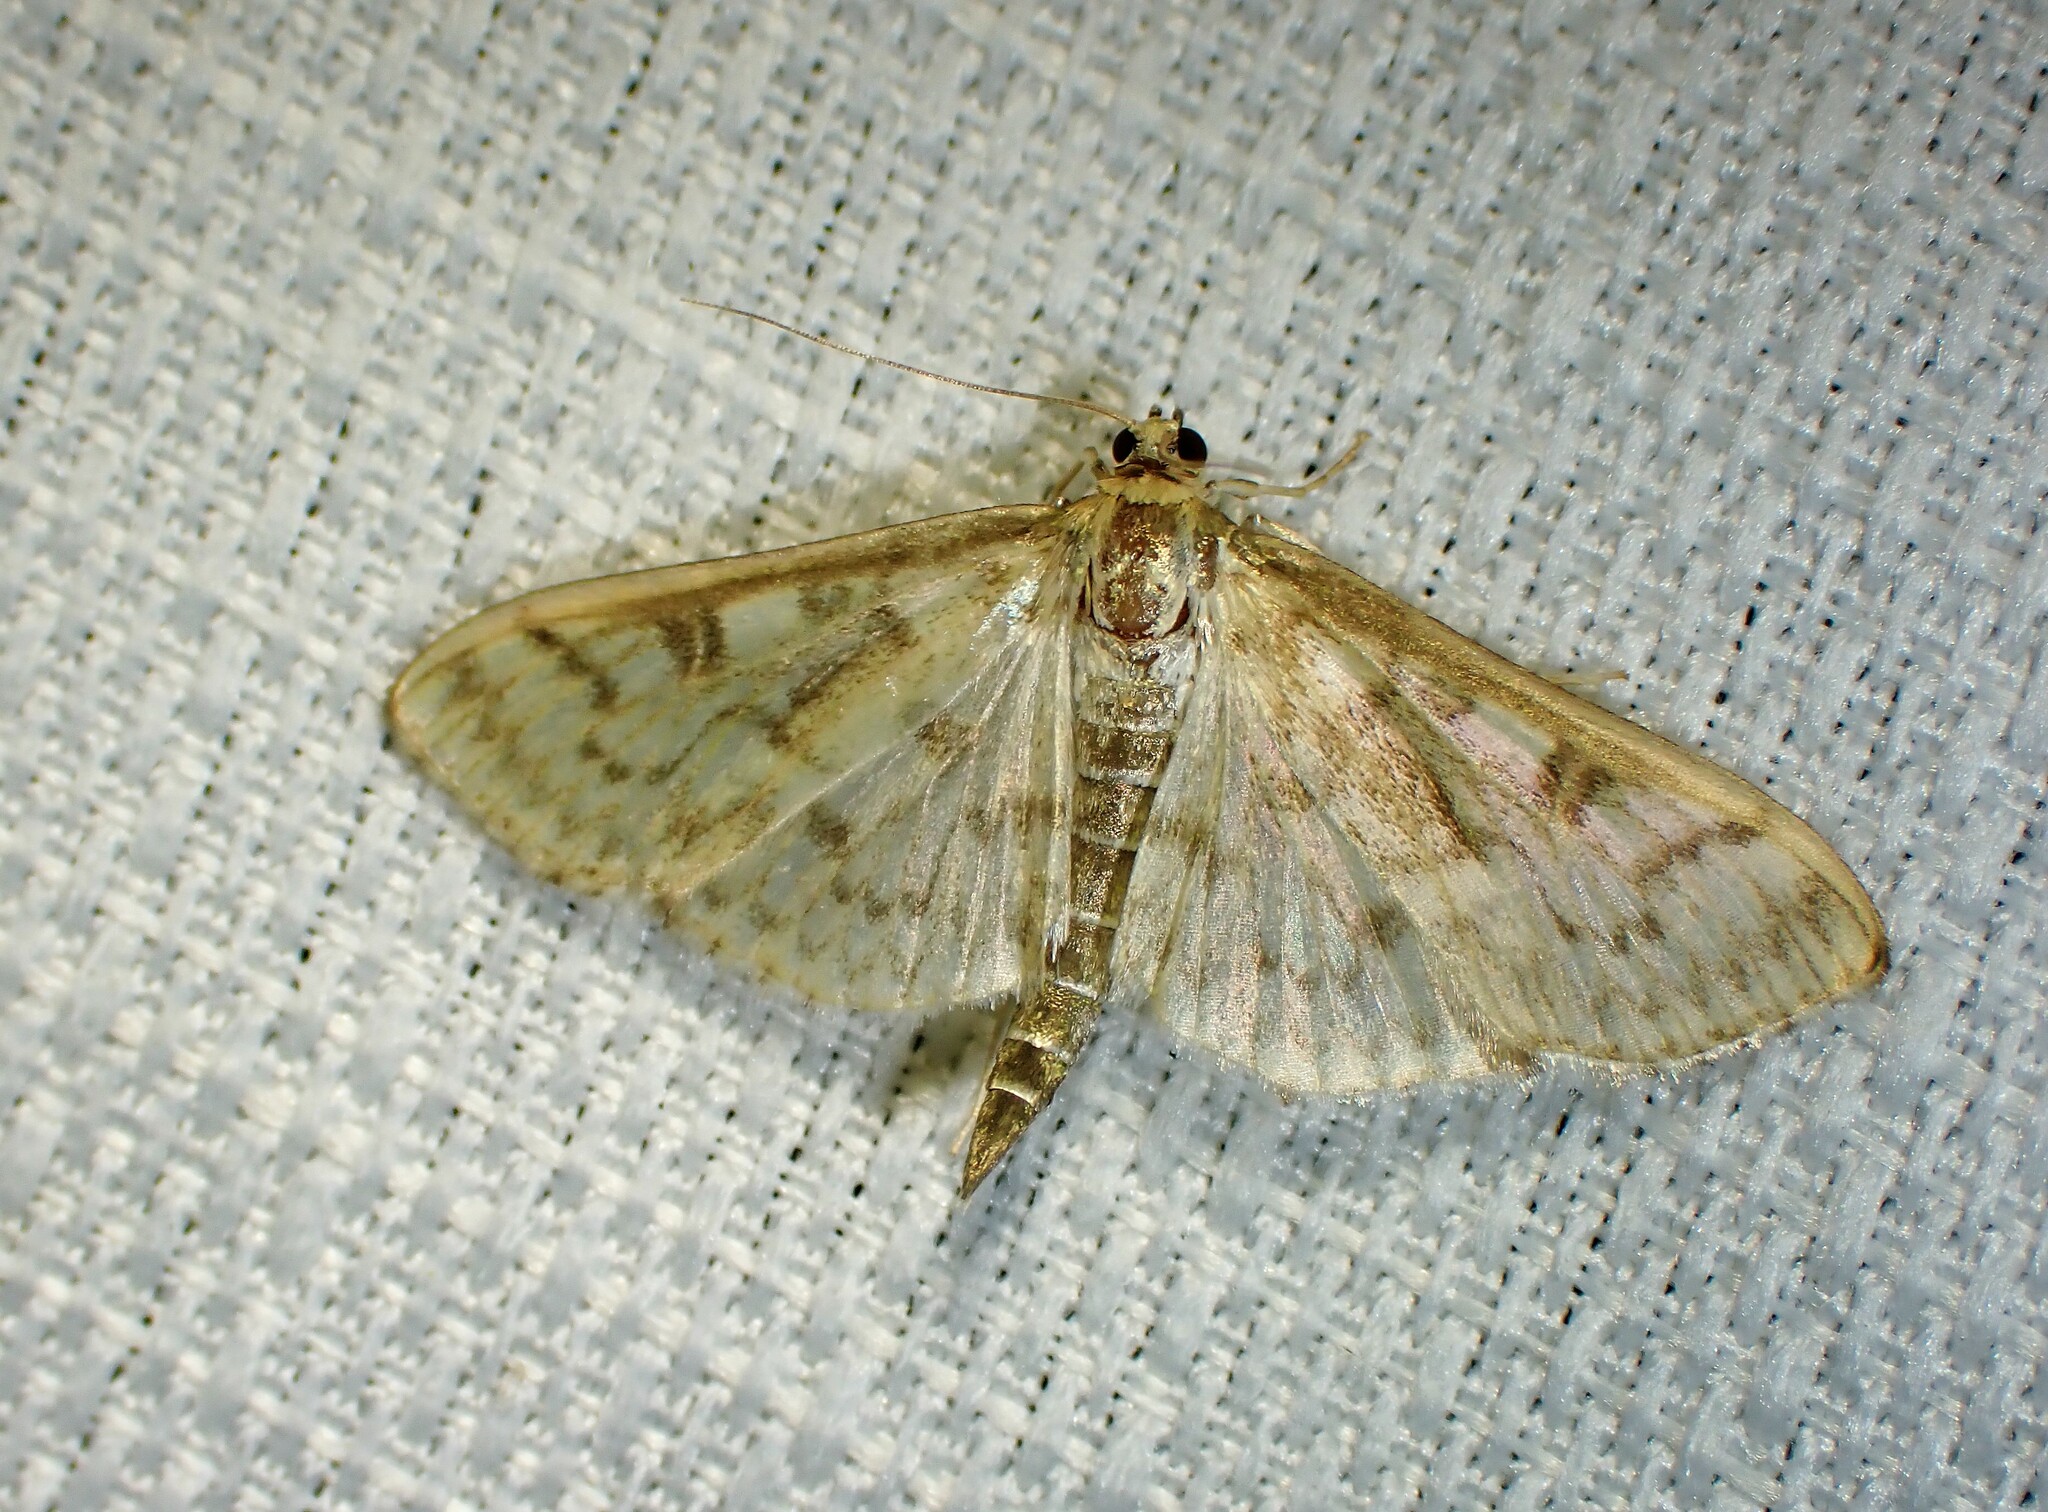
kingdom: Animalia
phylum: Arthropoda
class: Insecta
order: Lepidoptera
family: Crambidae
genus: Herpetogramma
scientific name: Herpetogramma aquilonalis
